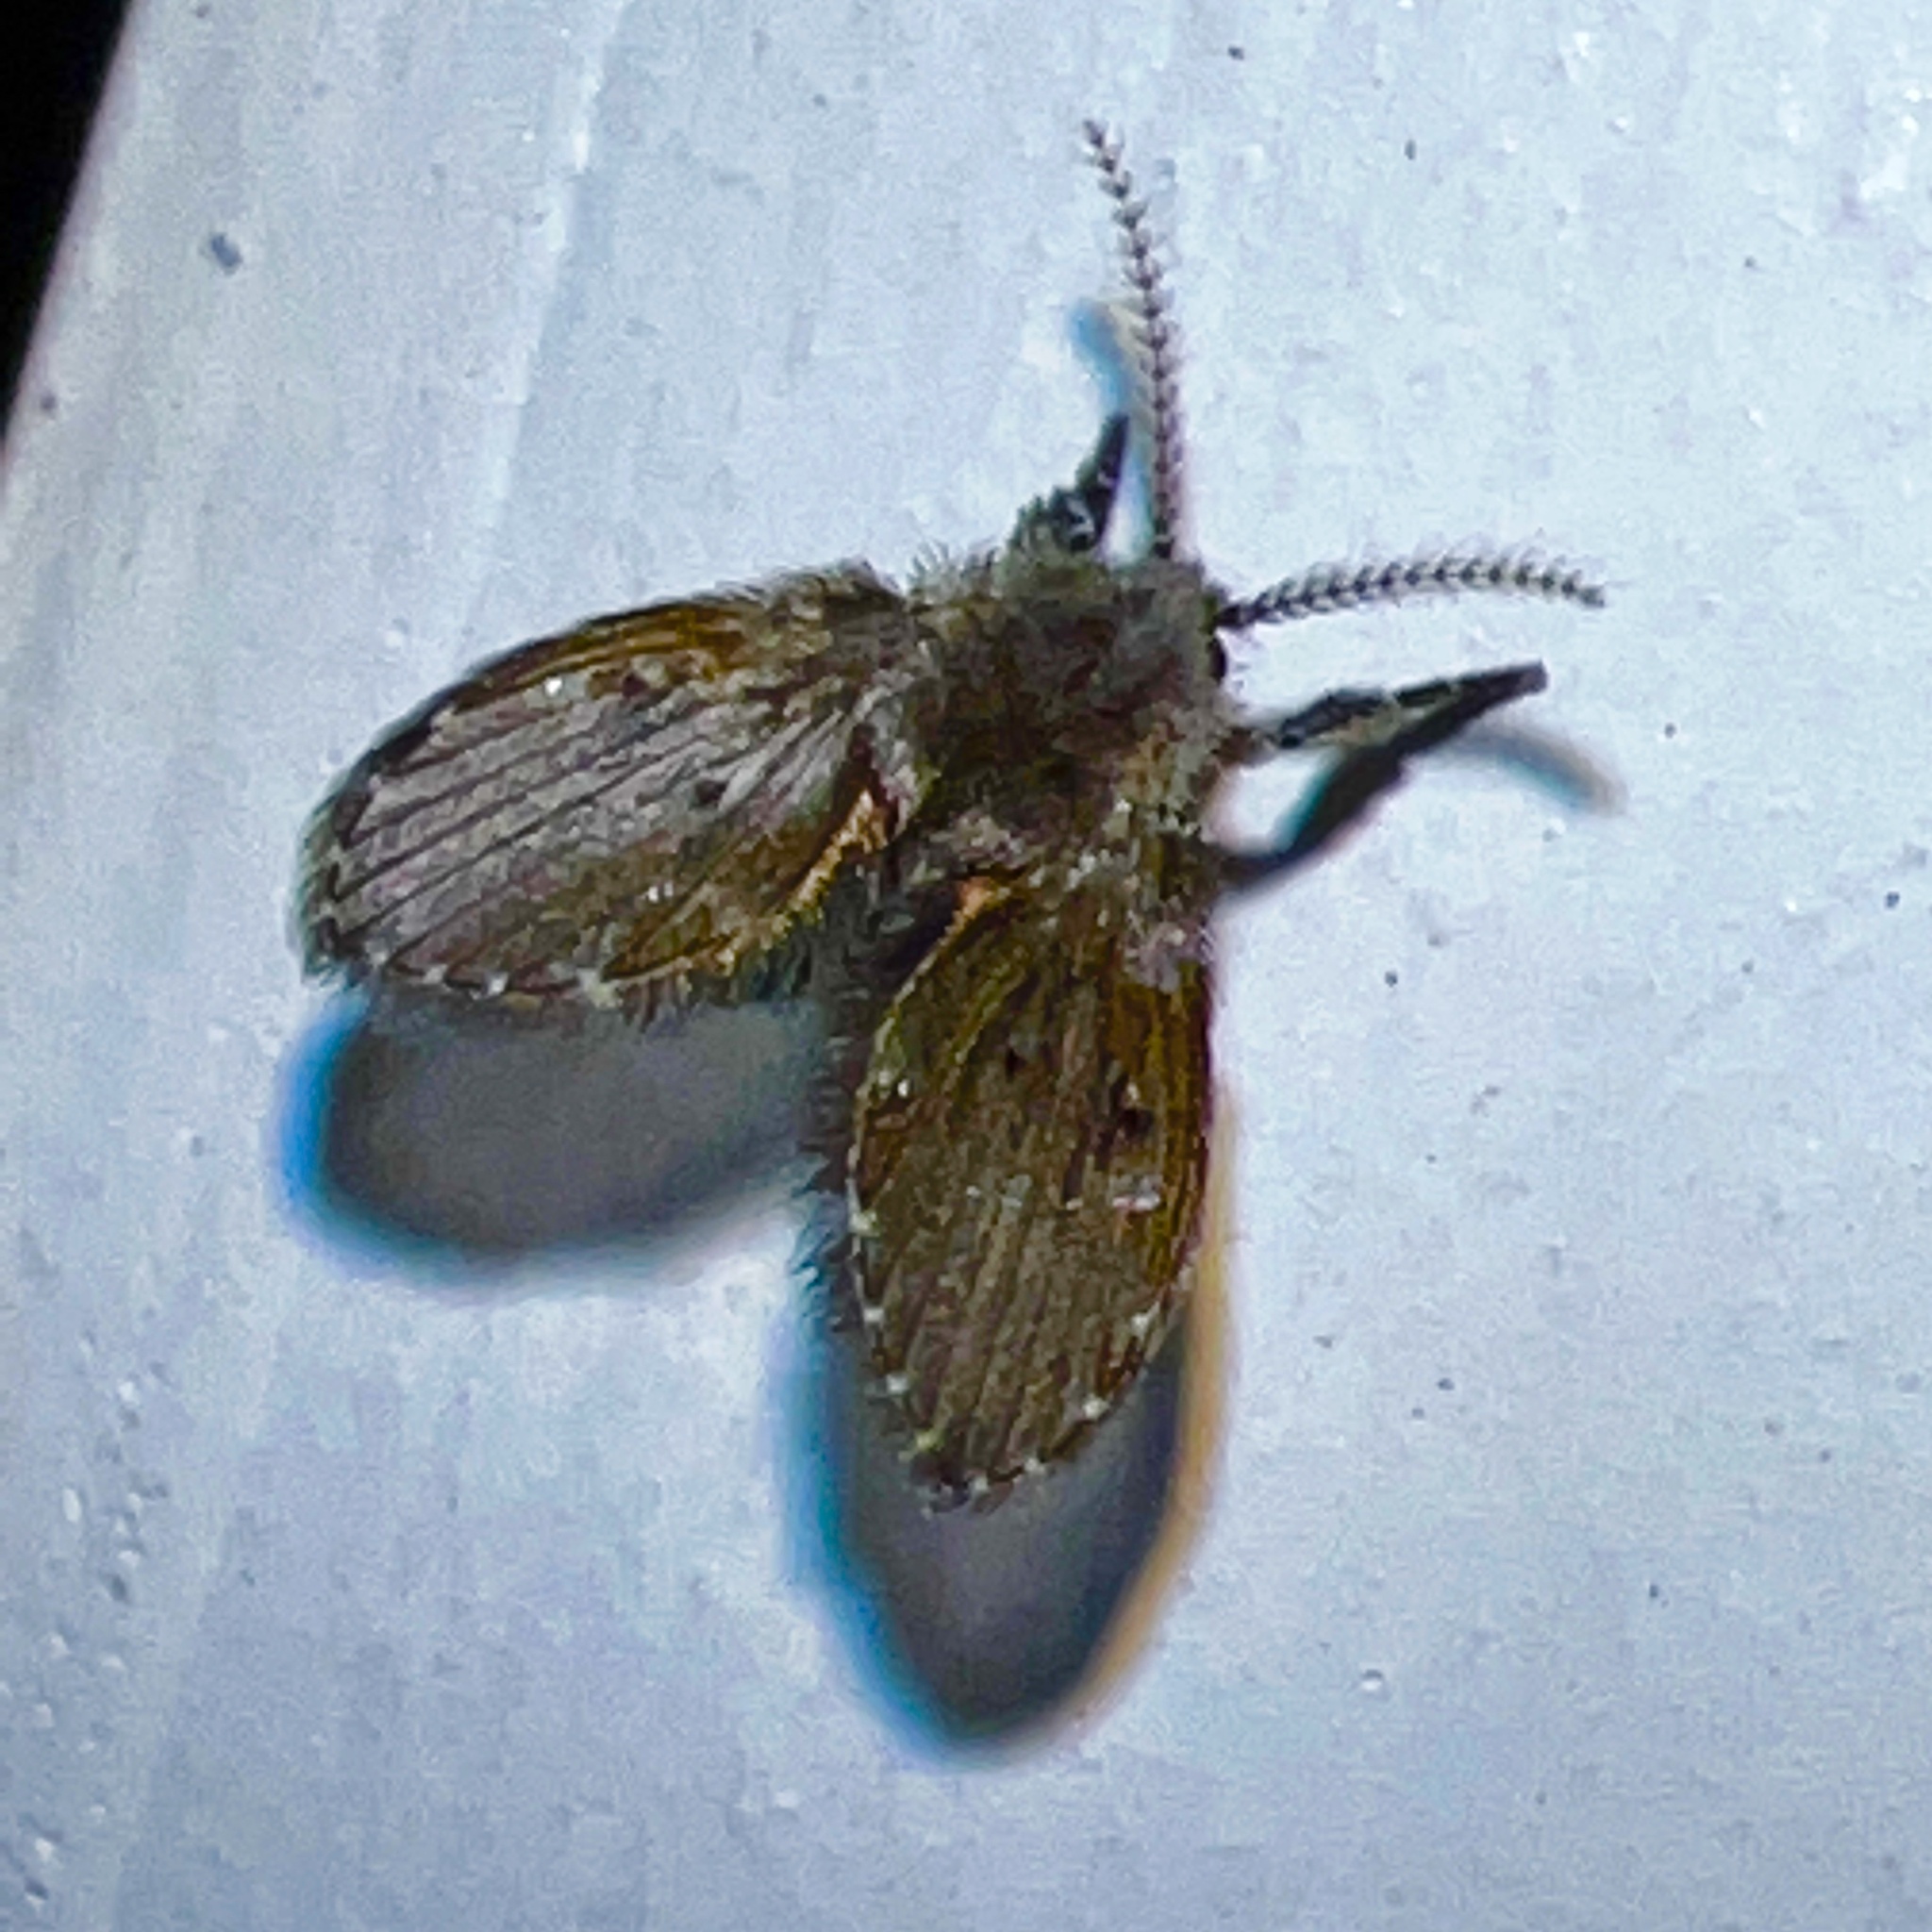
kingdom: Animalia
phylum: Arthropoda
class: Insecta
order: Diptera
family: Psychodidae
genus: Clogmia
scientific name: Clogmia albipunctatus
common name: White-spotted moth fly
